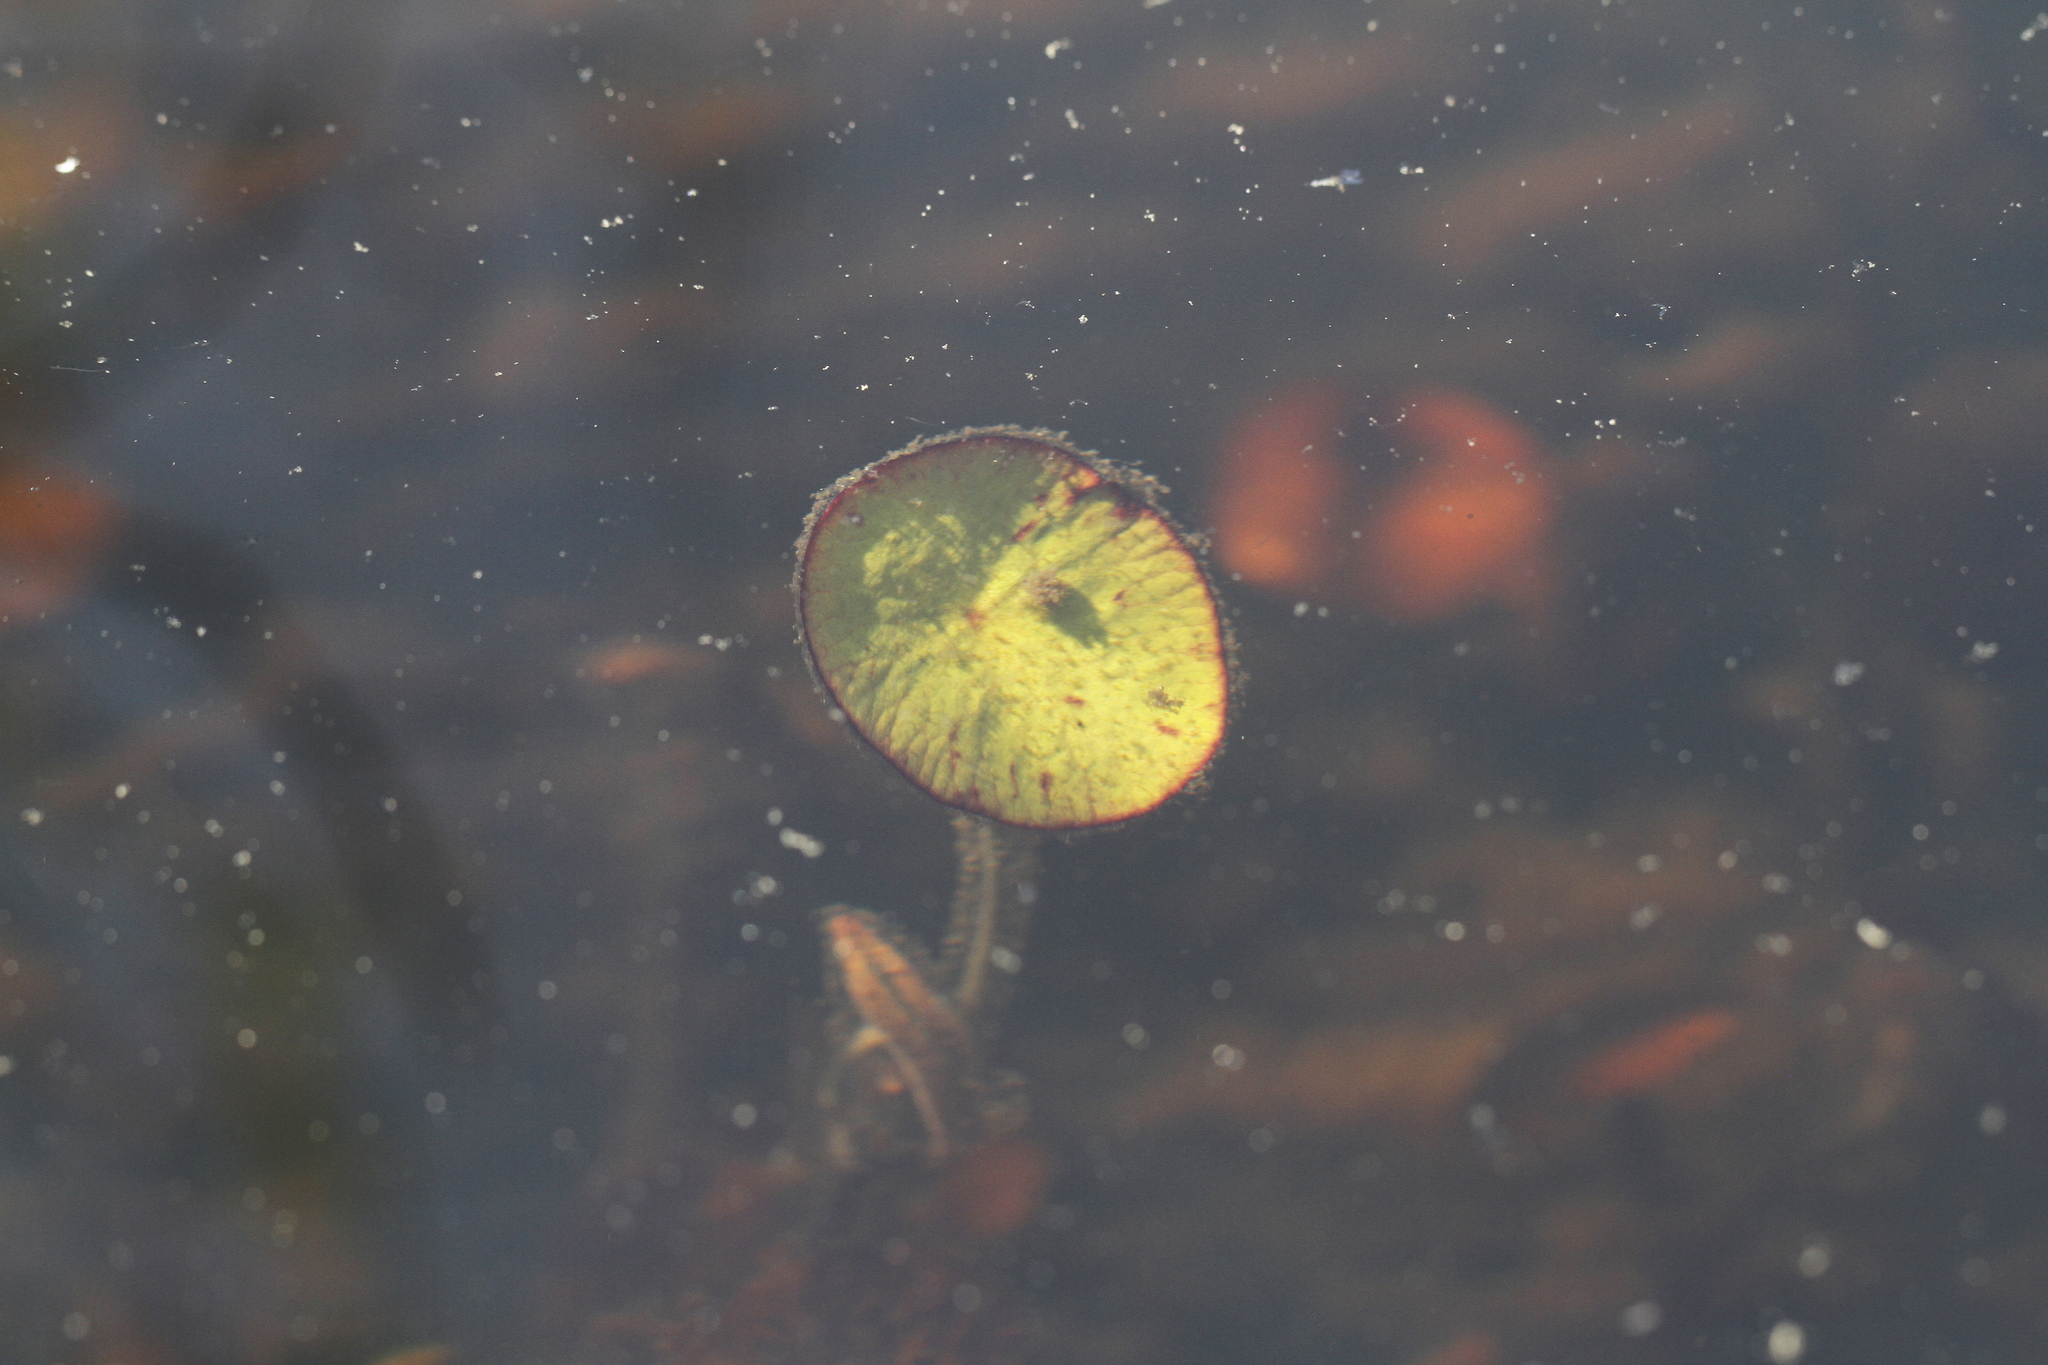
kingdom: Plantae
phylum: Tracheophyta
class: Magnoliopsida
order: Nymphaeales
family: Cabombaceae
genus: Brasenia
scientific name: Brasenia schreberi
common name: Water-shield
